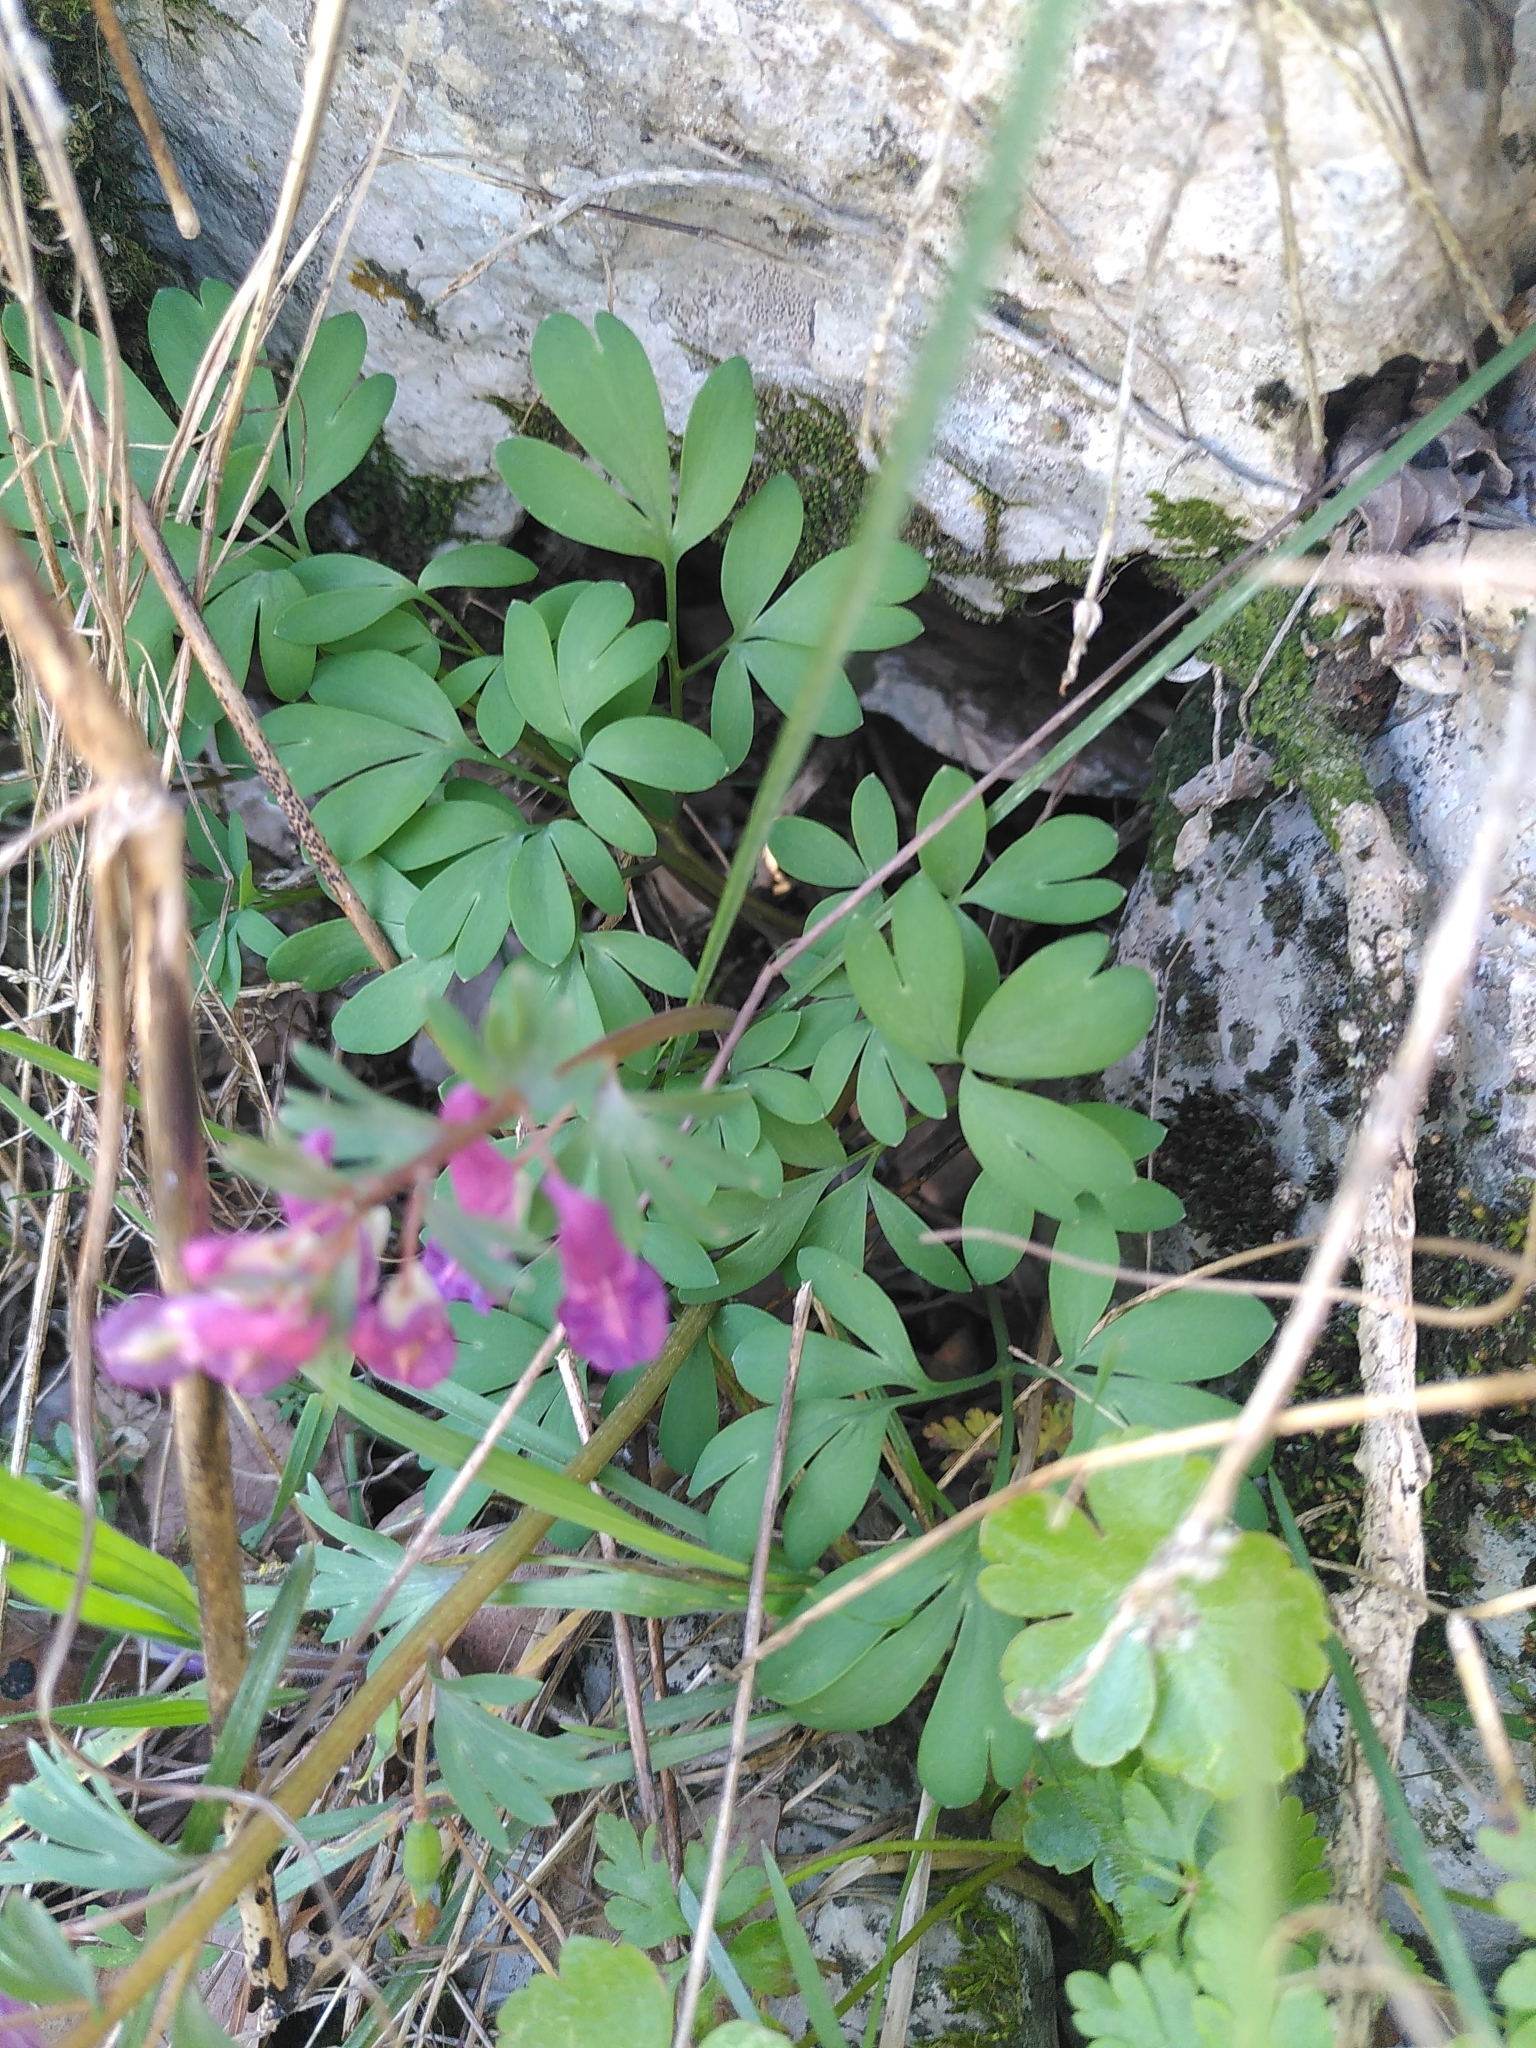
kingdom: Plantae
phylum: Tracheophyta
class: Magnoliopsida
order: Ranunculales
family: Papaveraceae
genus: Corydalis
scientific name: Corydalis solida
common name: Bird-in-a-bush
